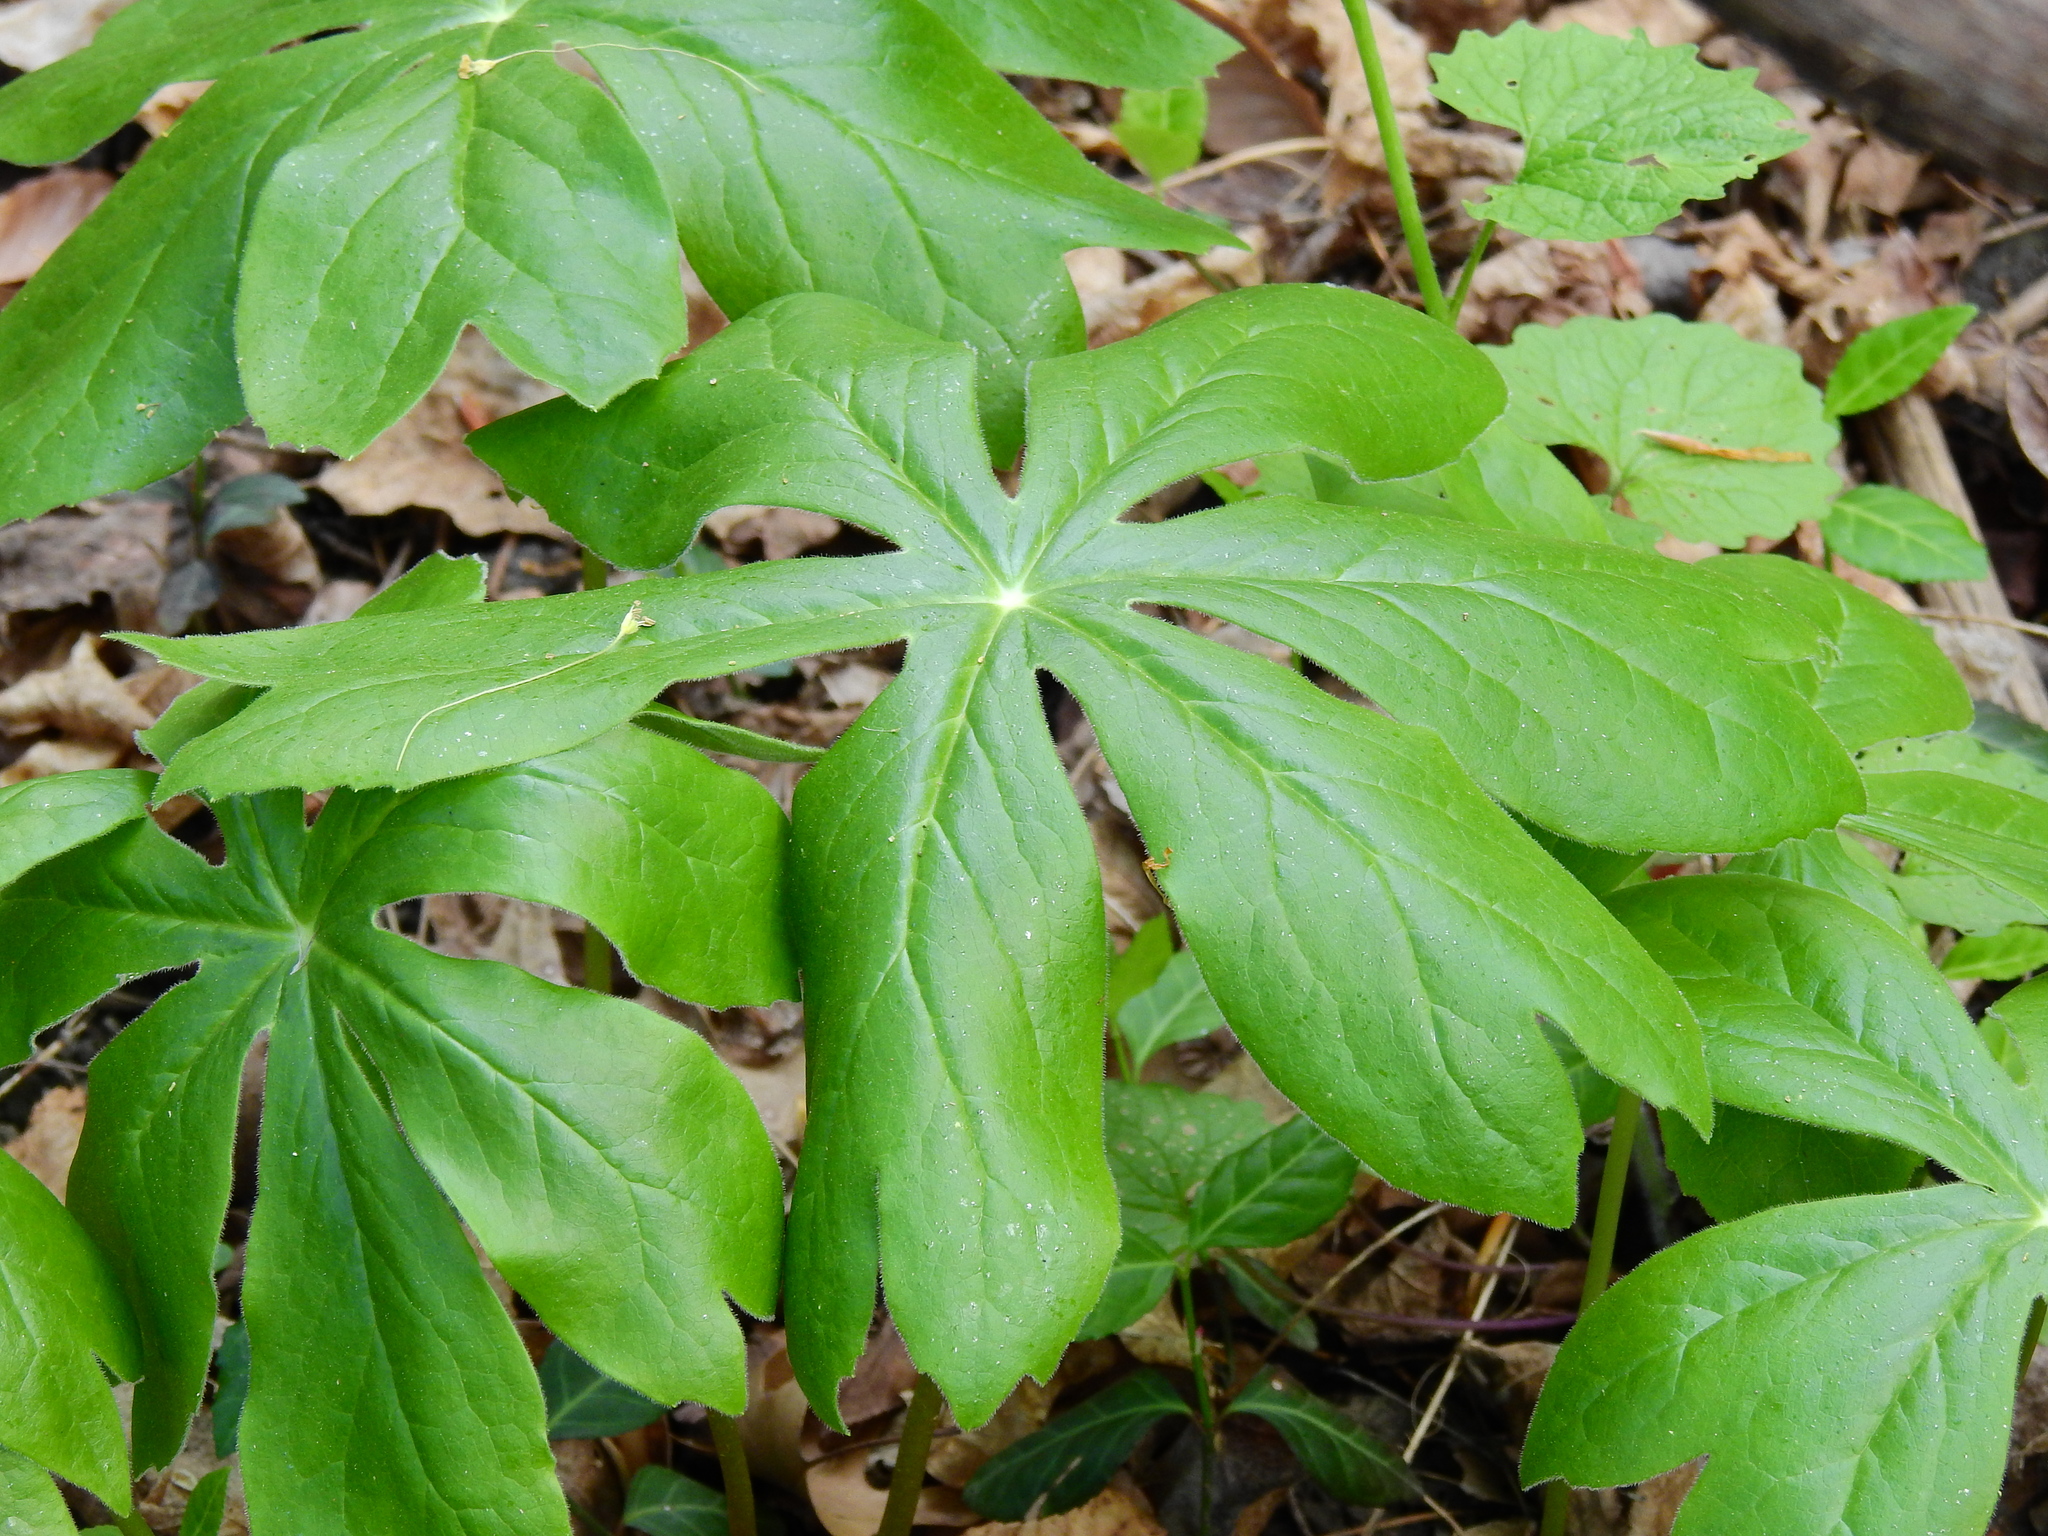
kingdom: Plantae
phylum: Tracheophyta
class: Magnoliopsida
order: Ranunculales
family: Berberidaceae
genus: Podophyllum
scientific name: Podophyllum peltatum
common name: Wild mandrake
